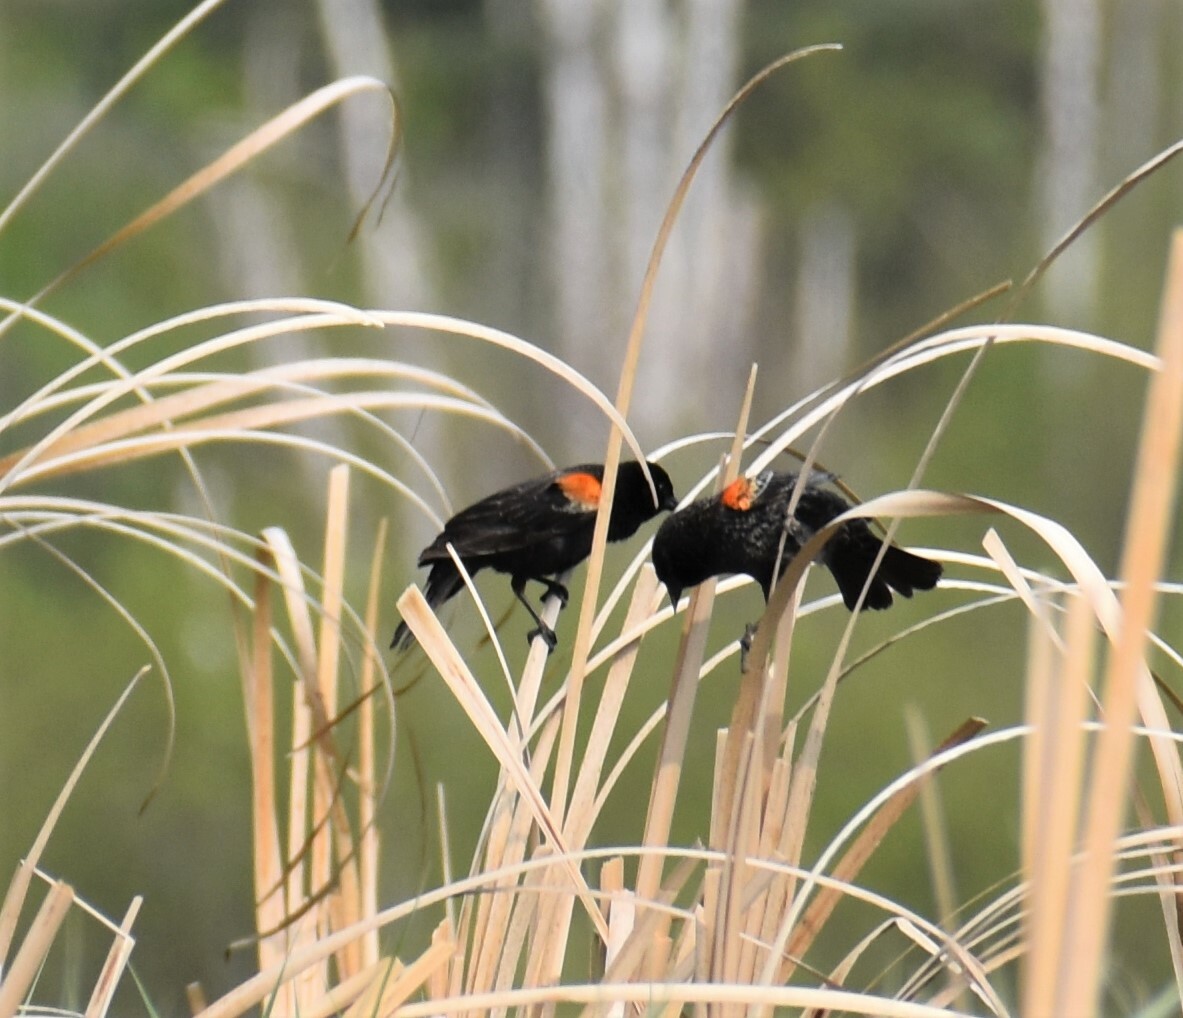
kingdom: Animalia
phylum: Chordata
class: Aves
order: Passeriformes
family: Icteridae
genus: Agelaius
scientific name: Agelaius phoeniceus
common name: Red-winged blackbird
